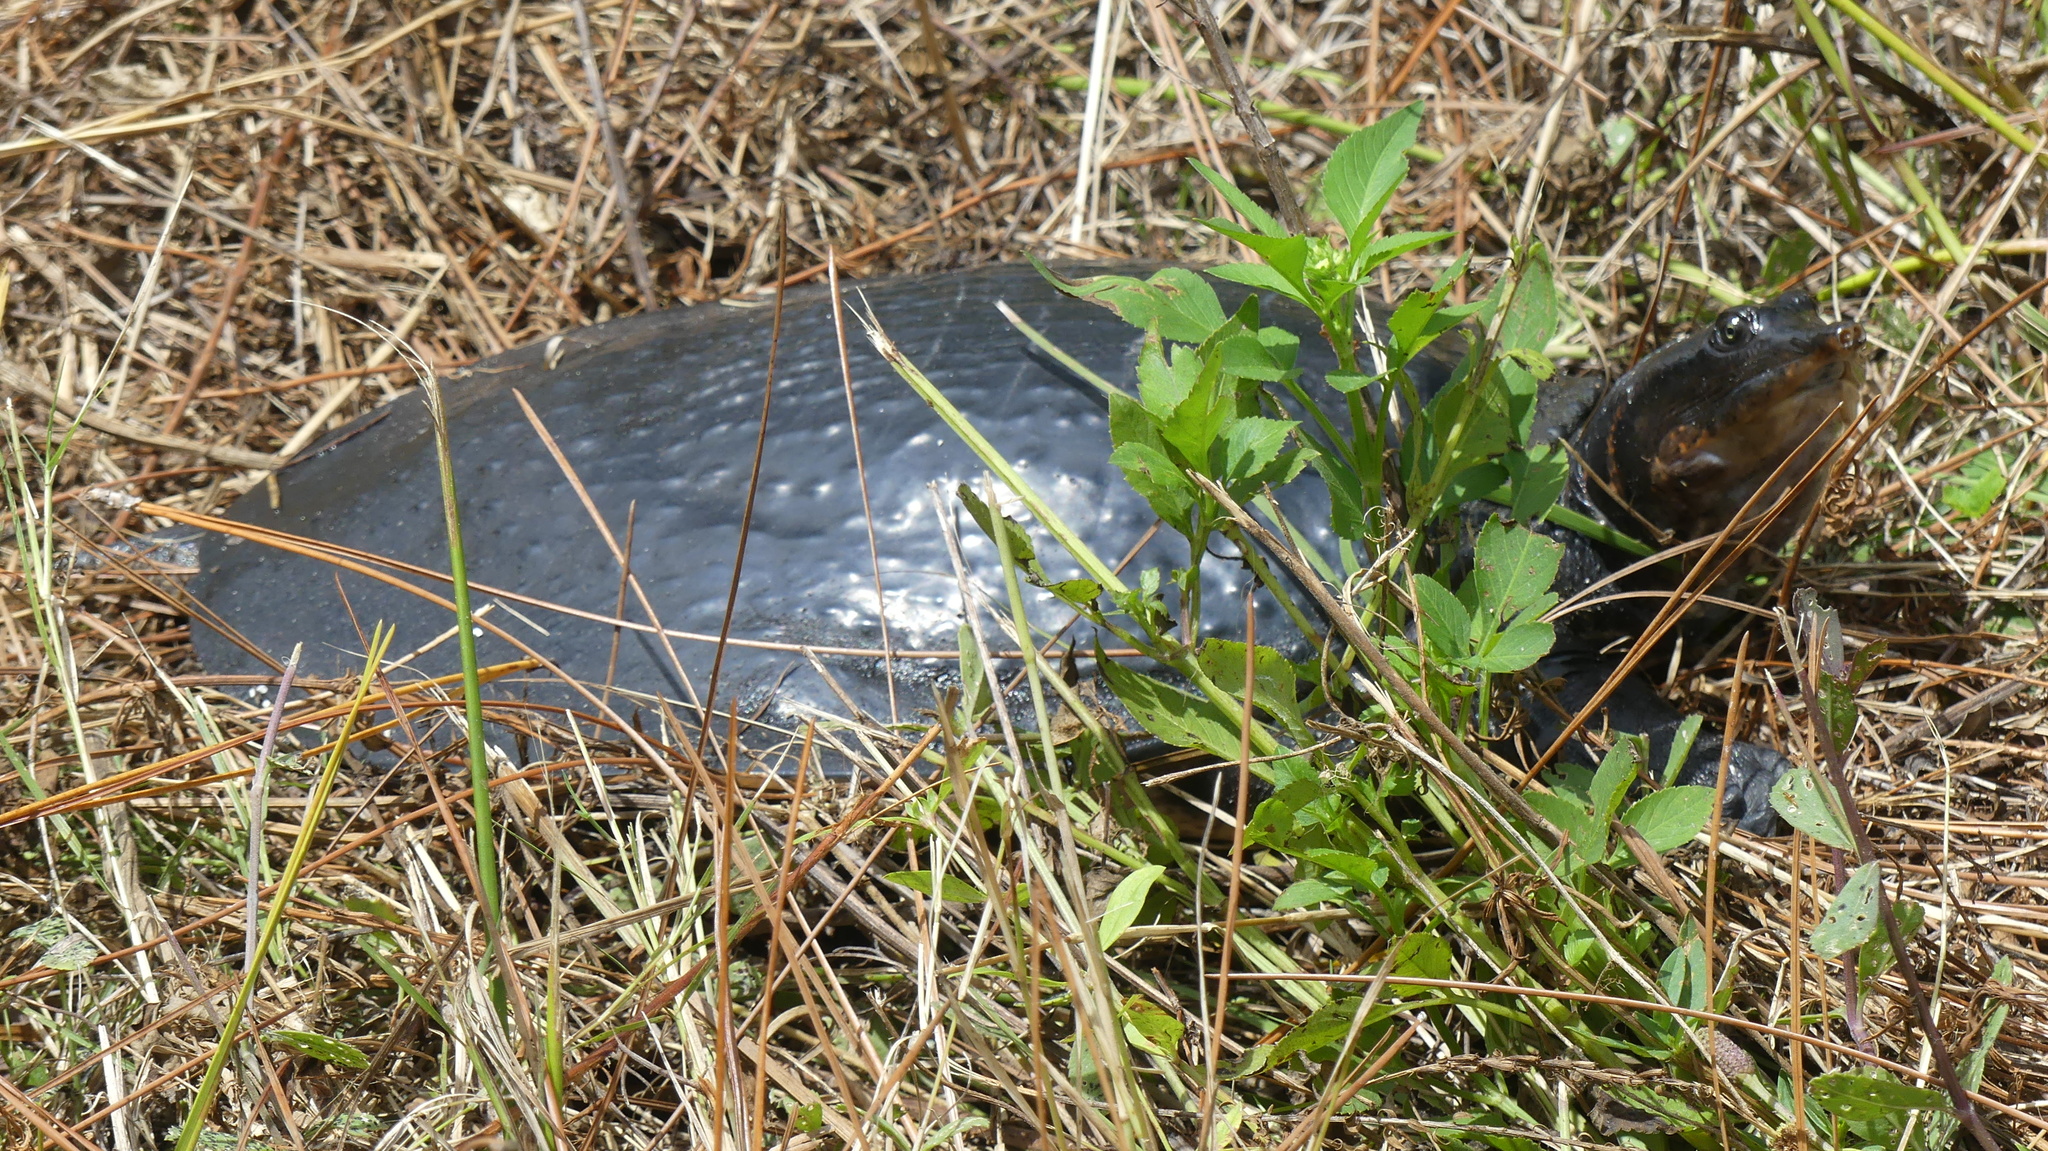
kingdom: Animalia
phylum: Chordata
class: Testudines
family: Trionychidae
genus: Apalone
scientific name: Apalone ferox
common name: Florida softshell turtle
